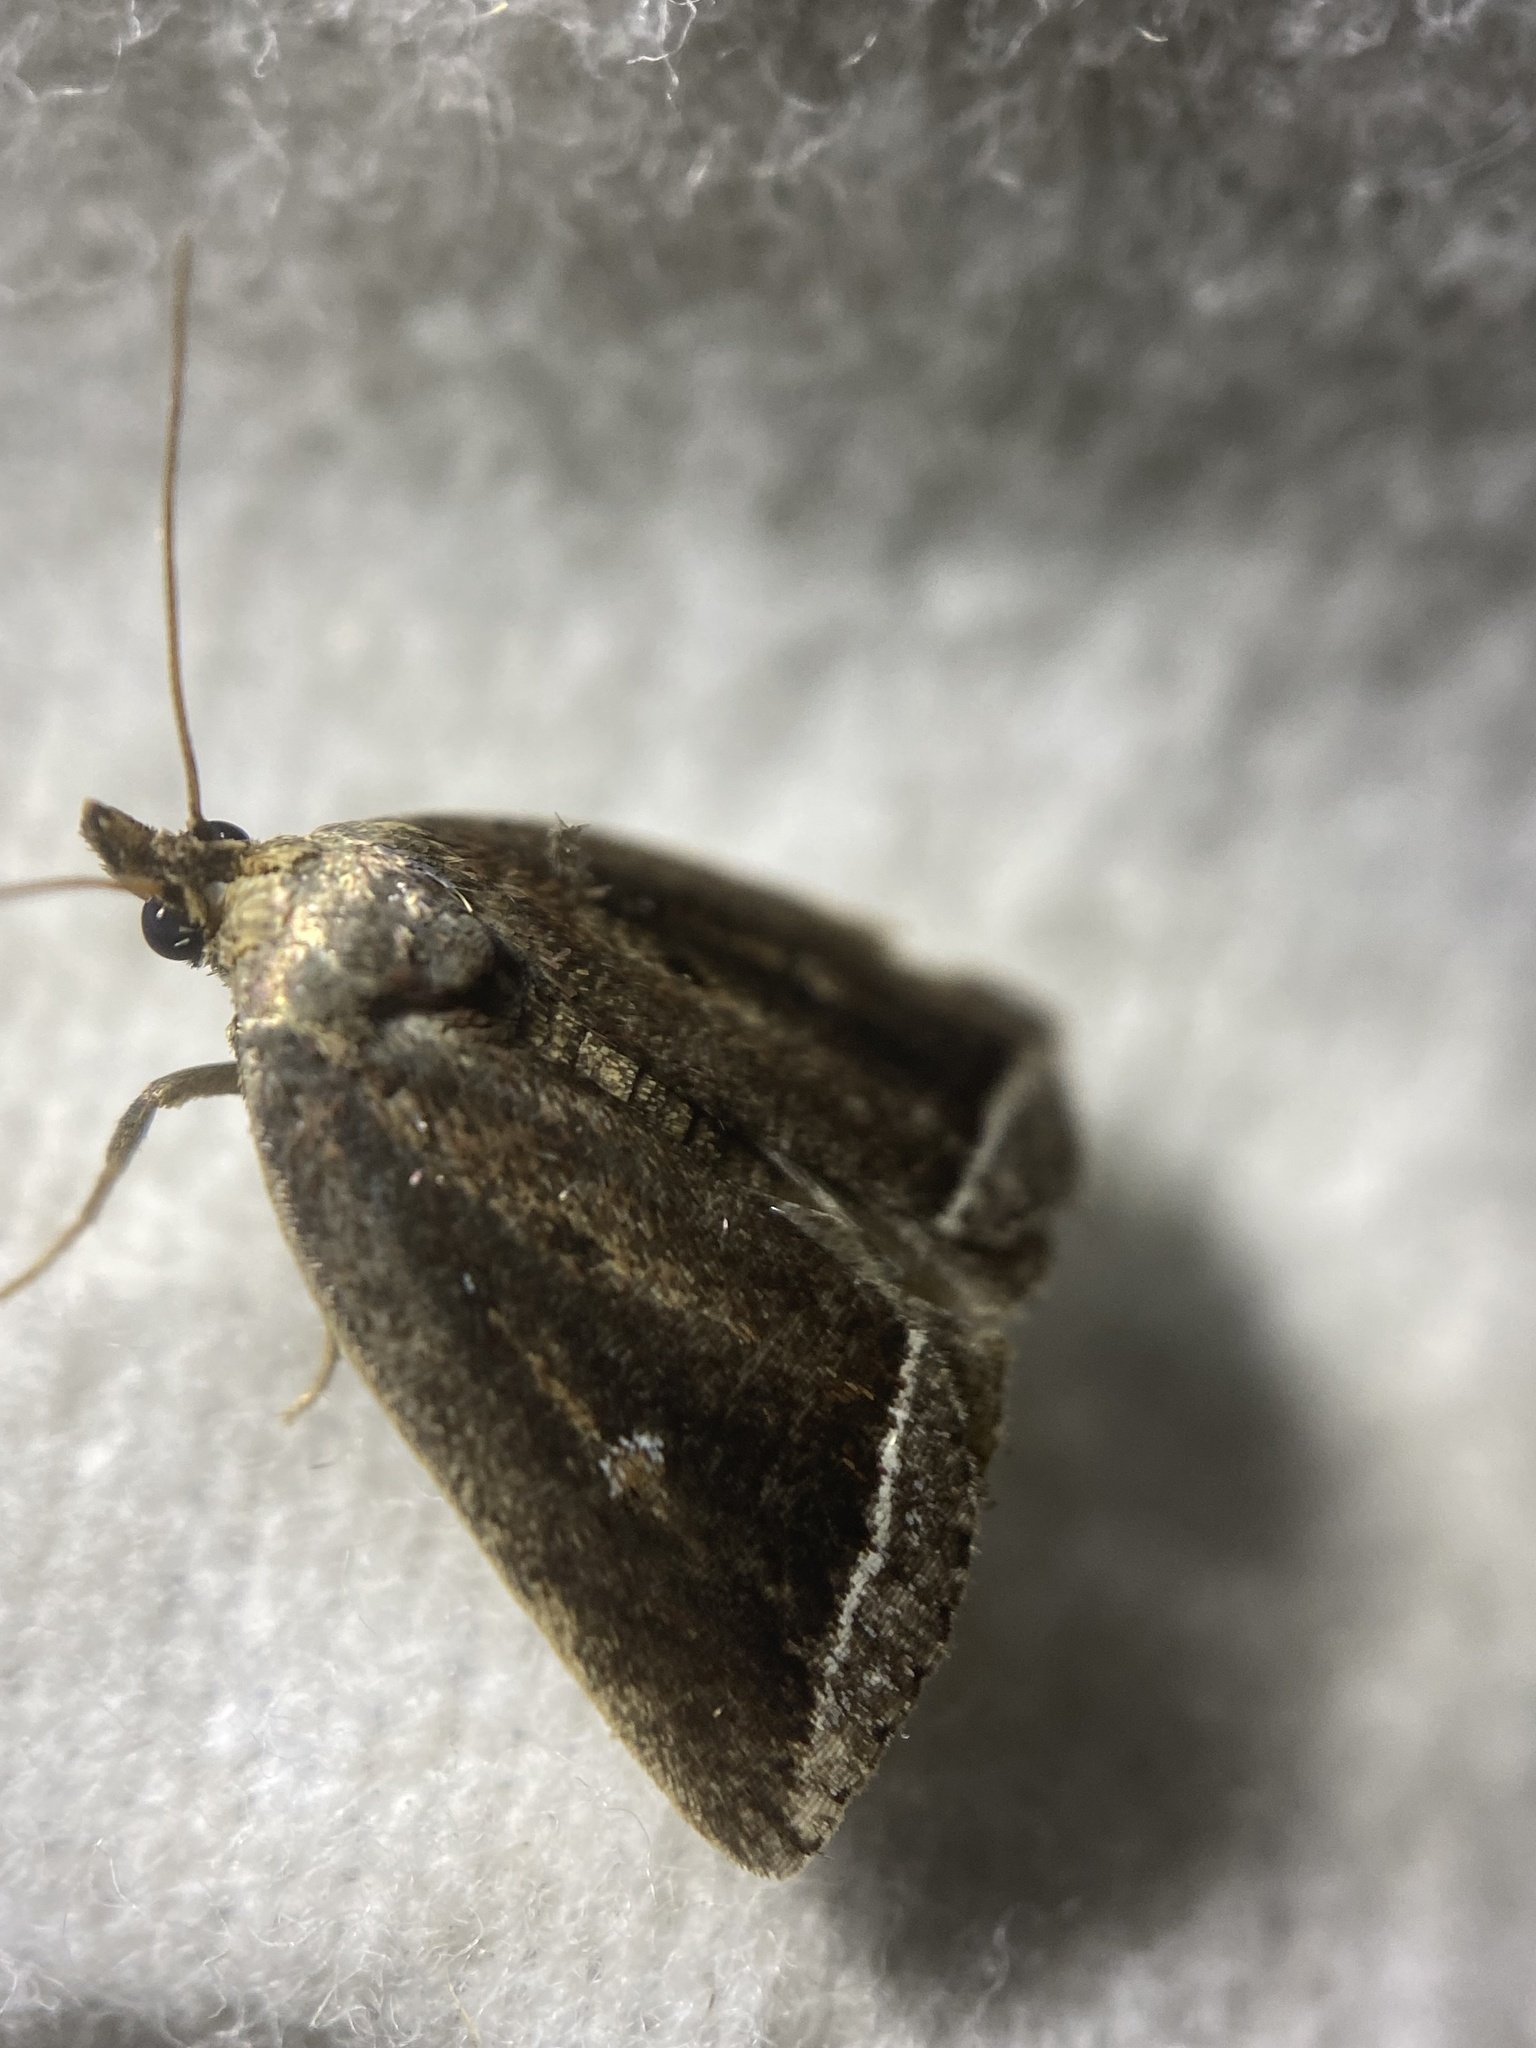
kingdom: Animalia
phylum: Arthropoda
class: Insecta
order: Lepidoptera
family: Erebidae
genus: Capis
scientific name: Capis curvata
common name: Curved halter moth
